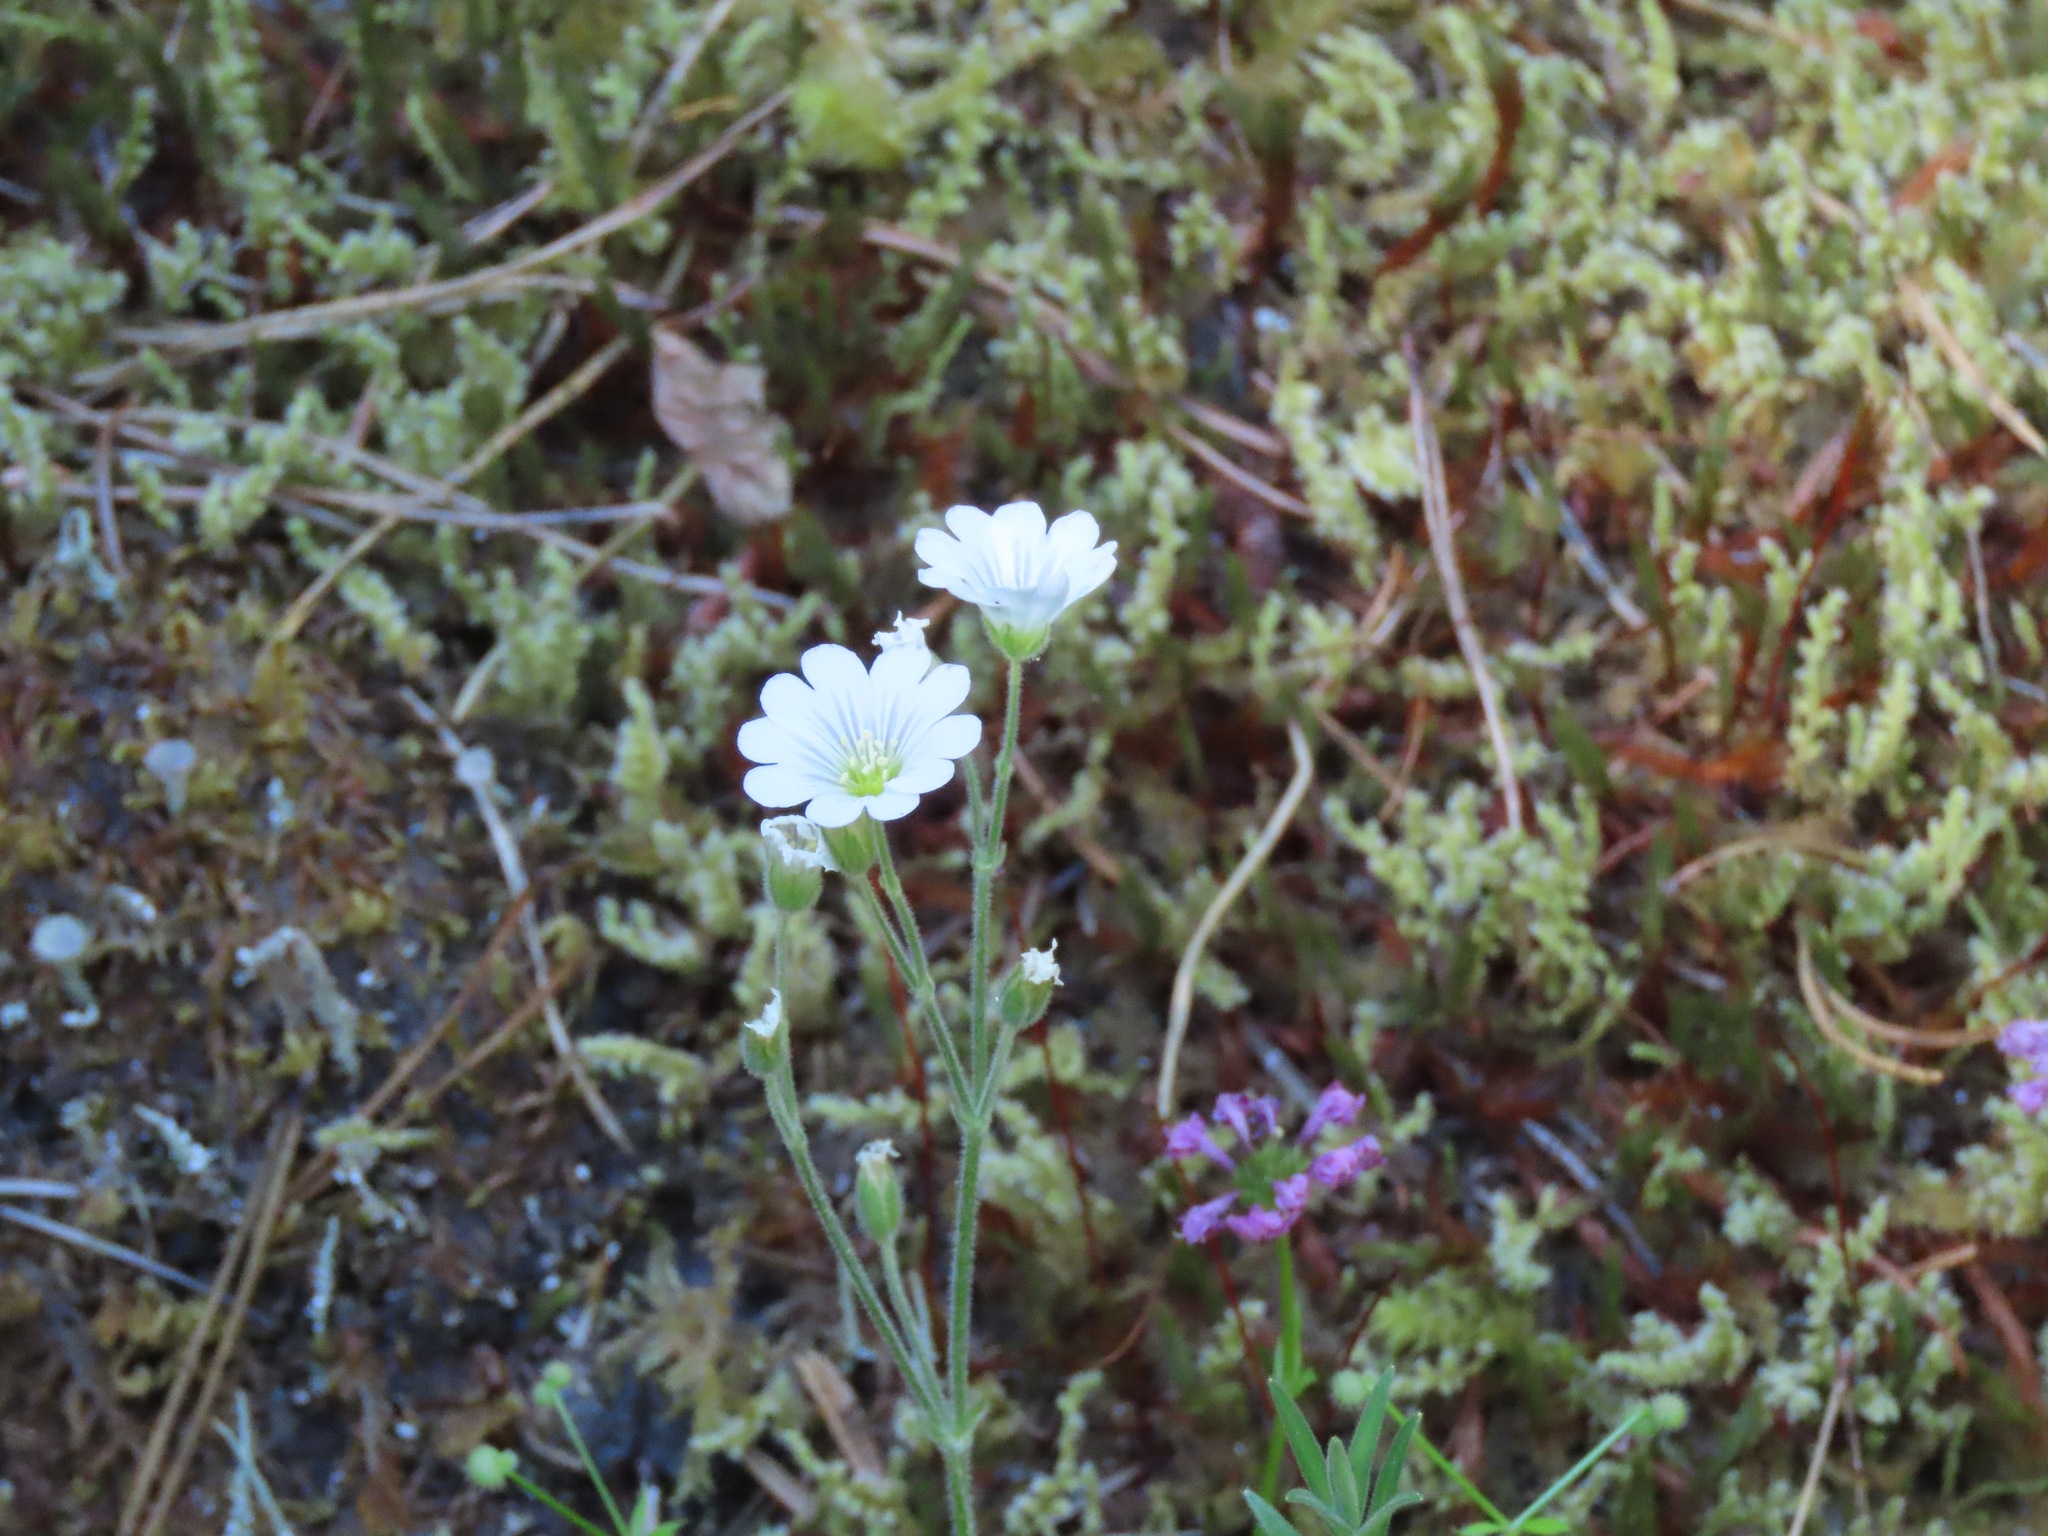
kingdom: Plantae
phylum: Tracheophyta
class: Magnoliopsida
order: Caryophyllales
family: Caryophyllaceae
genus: Cerastium
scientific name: Cerastium arvense
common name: Field mouse-ear
